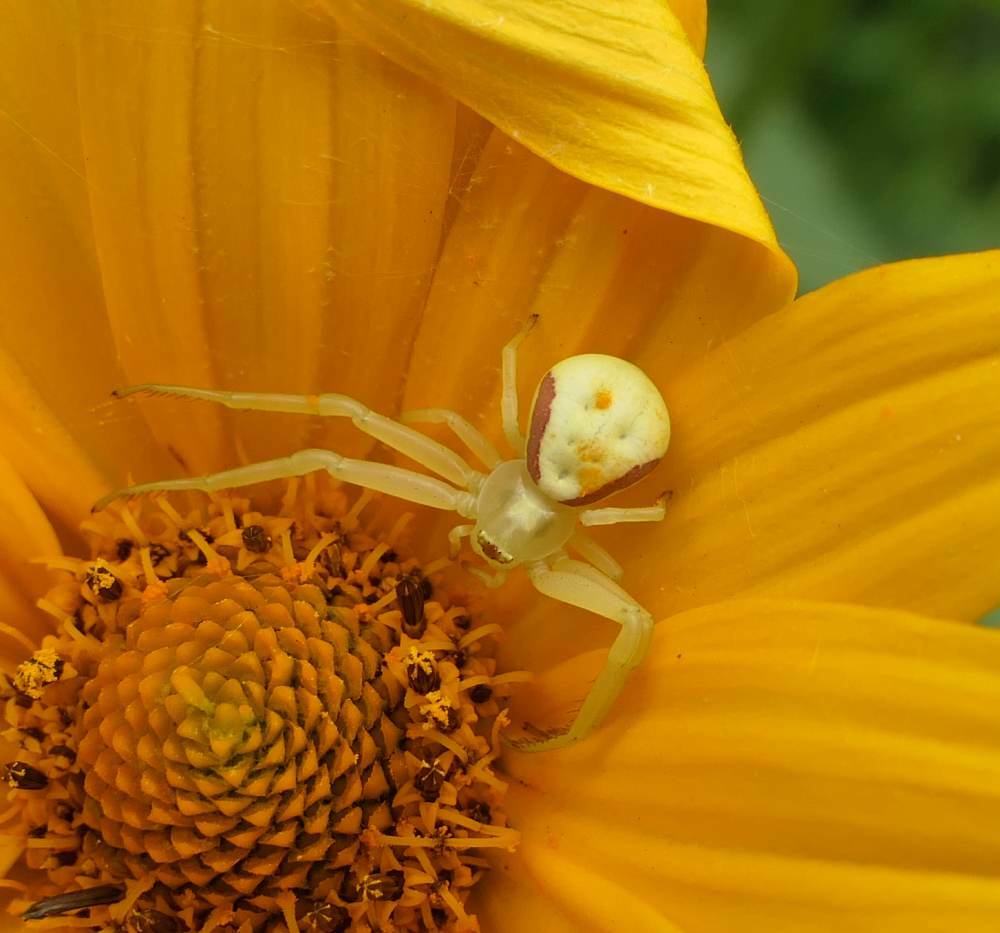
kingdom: Animalia
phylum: Arthropoda
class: Arachnida
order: Araneae
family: Thomisidae
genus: Misumena
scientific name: Misumena vatia
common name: Goldenrod crab spider
